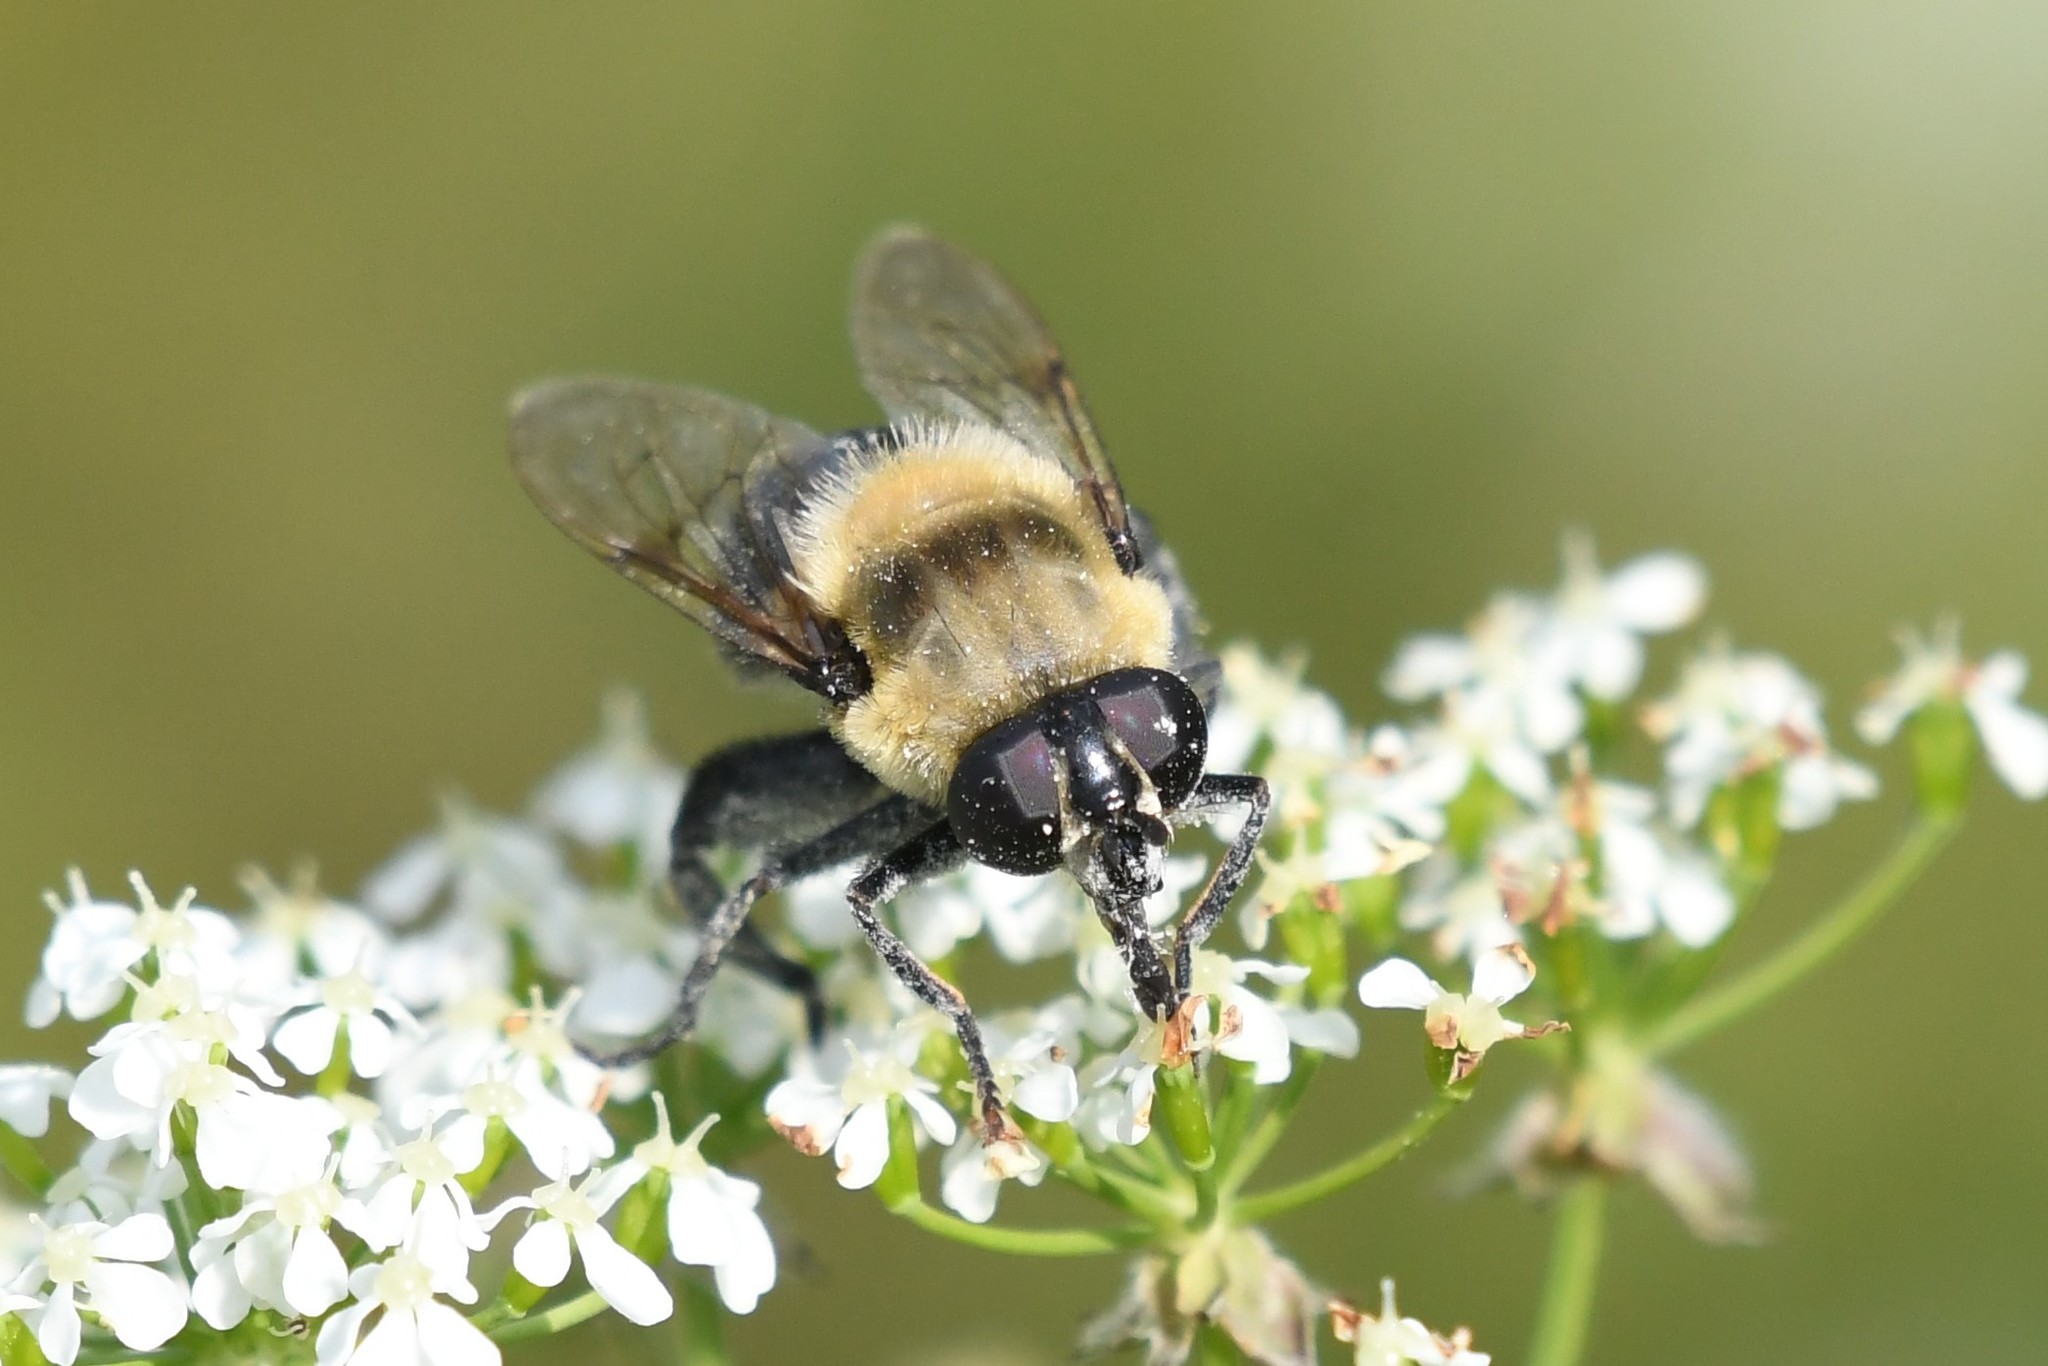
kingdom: Animalia
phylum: Arthropoda
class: Insecta
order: Diptera
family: Syrphidae
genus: Imatisma
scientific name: Imatisma bautias
